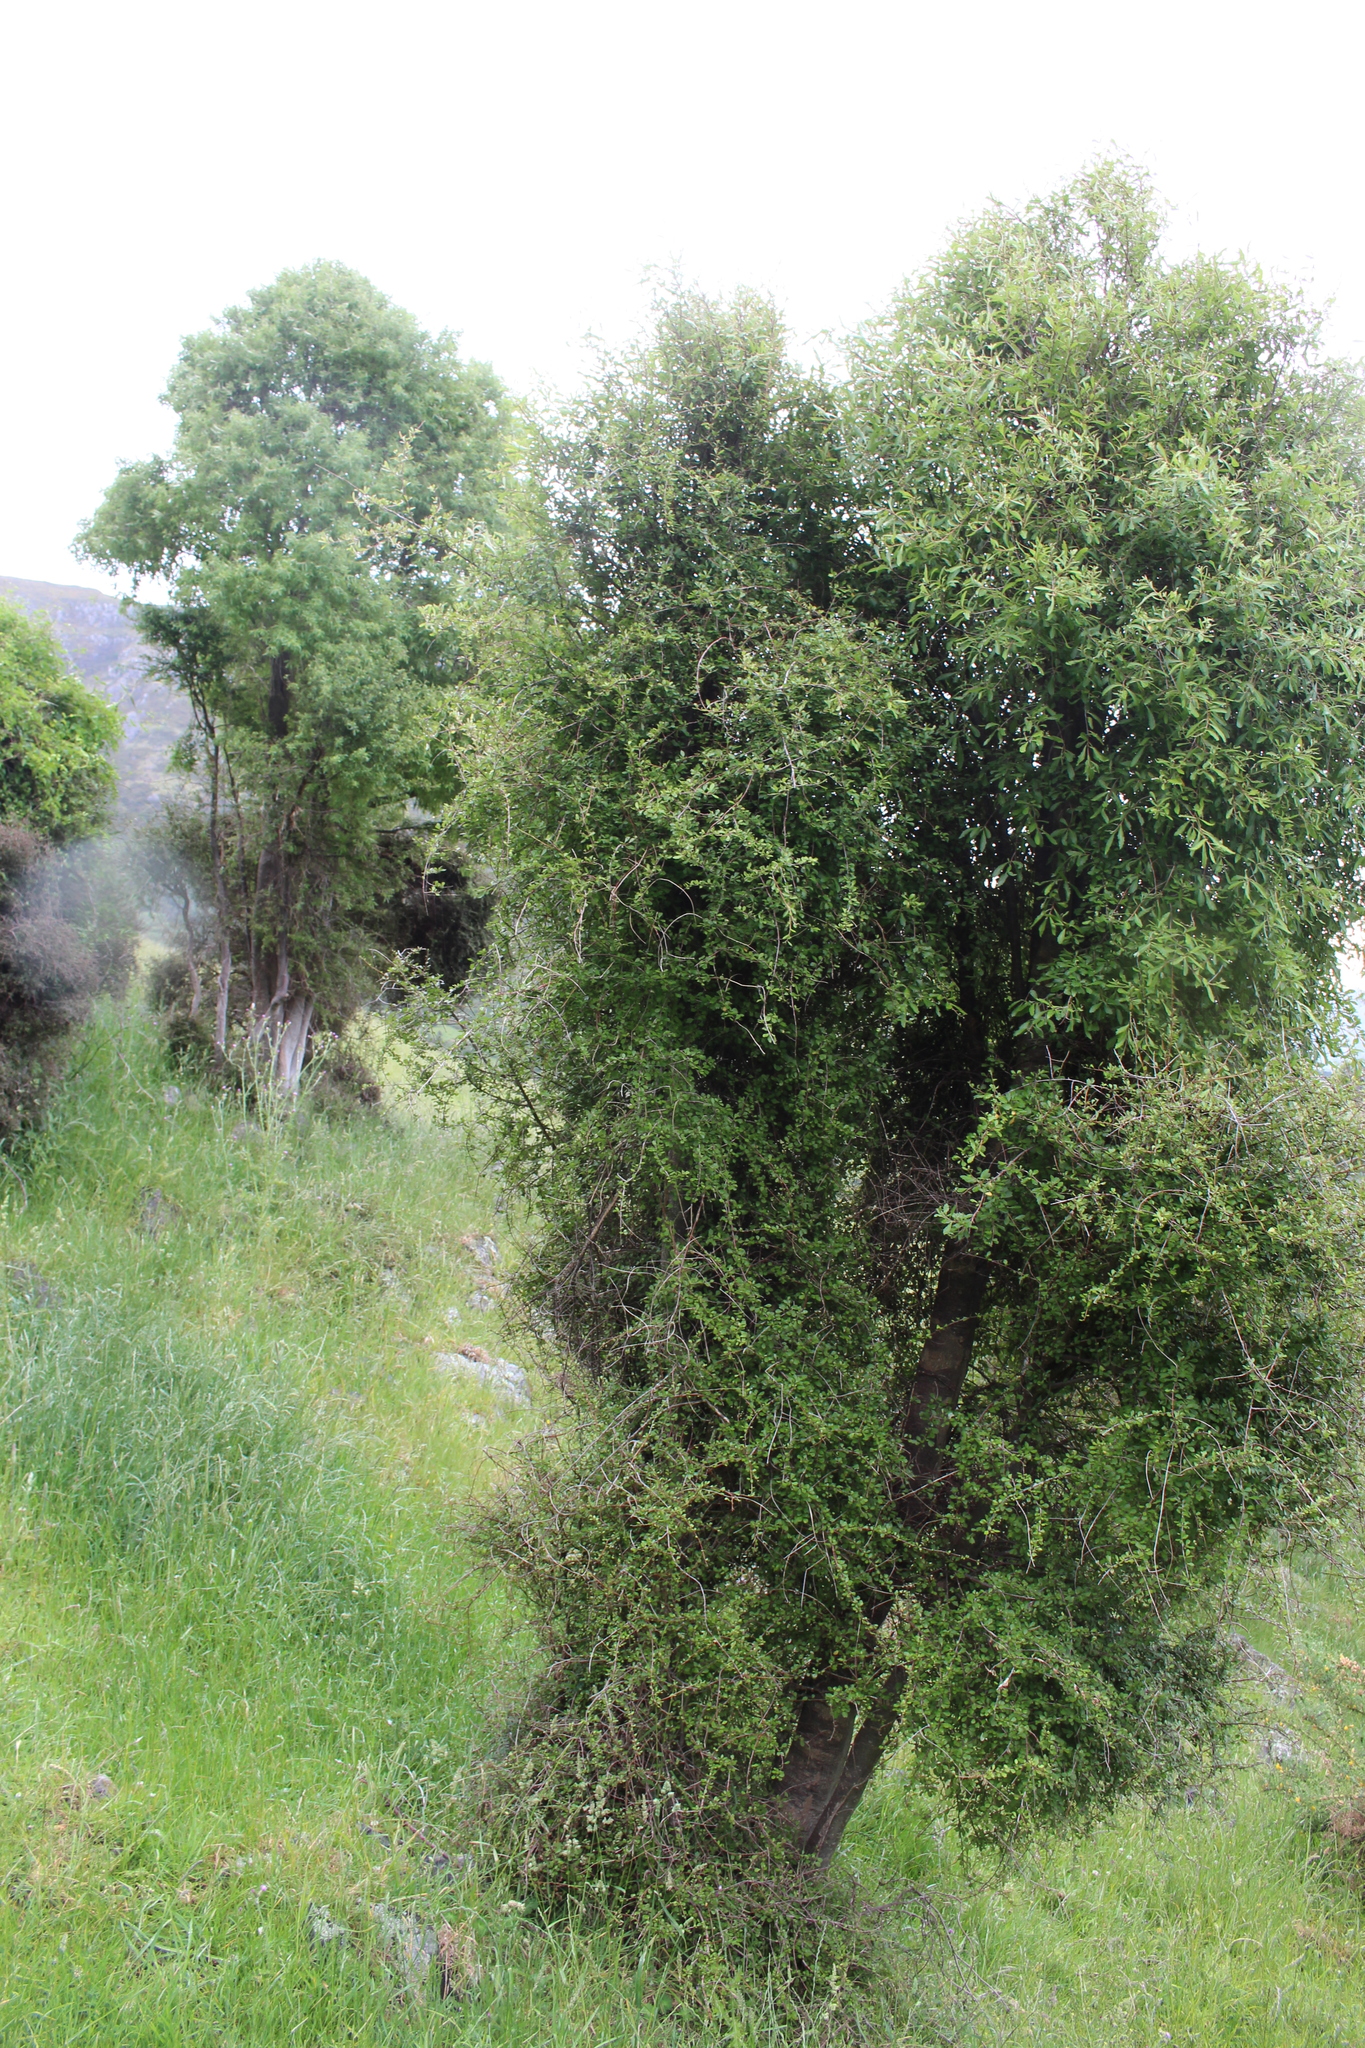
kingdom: Plantae
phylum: Tracheophyta
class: Magnoliopsida
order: Apiales
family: Pennantiaceae
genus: Pennantia
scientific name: Pennantia corymbosa
